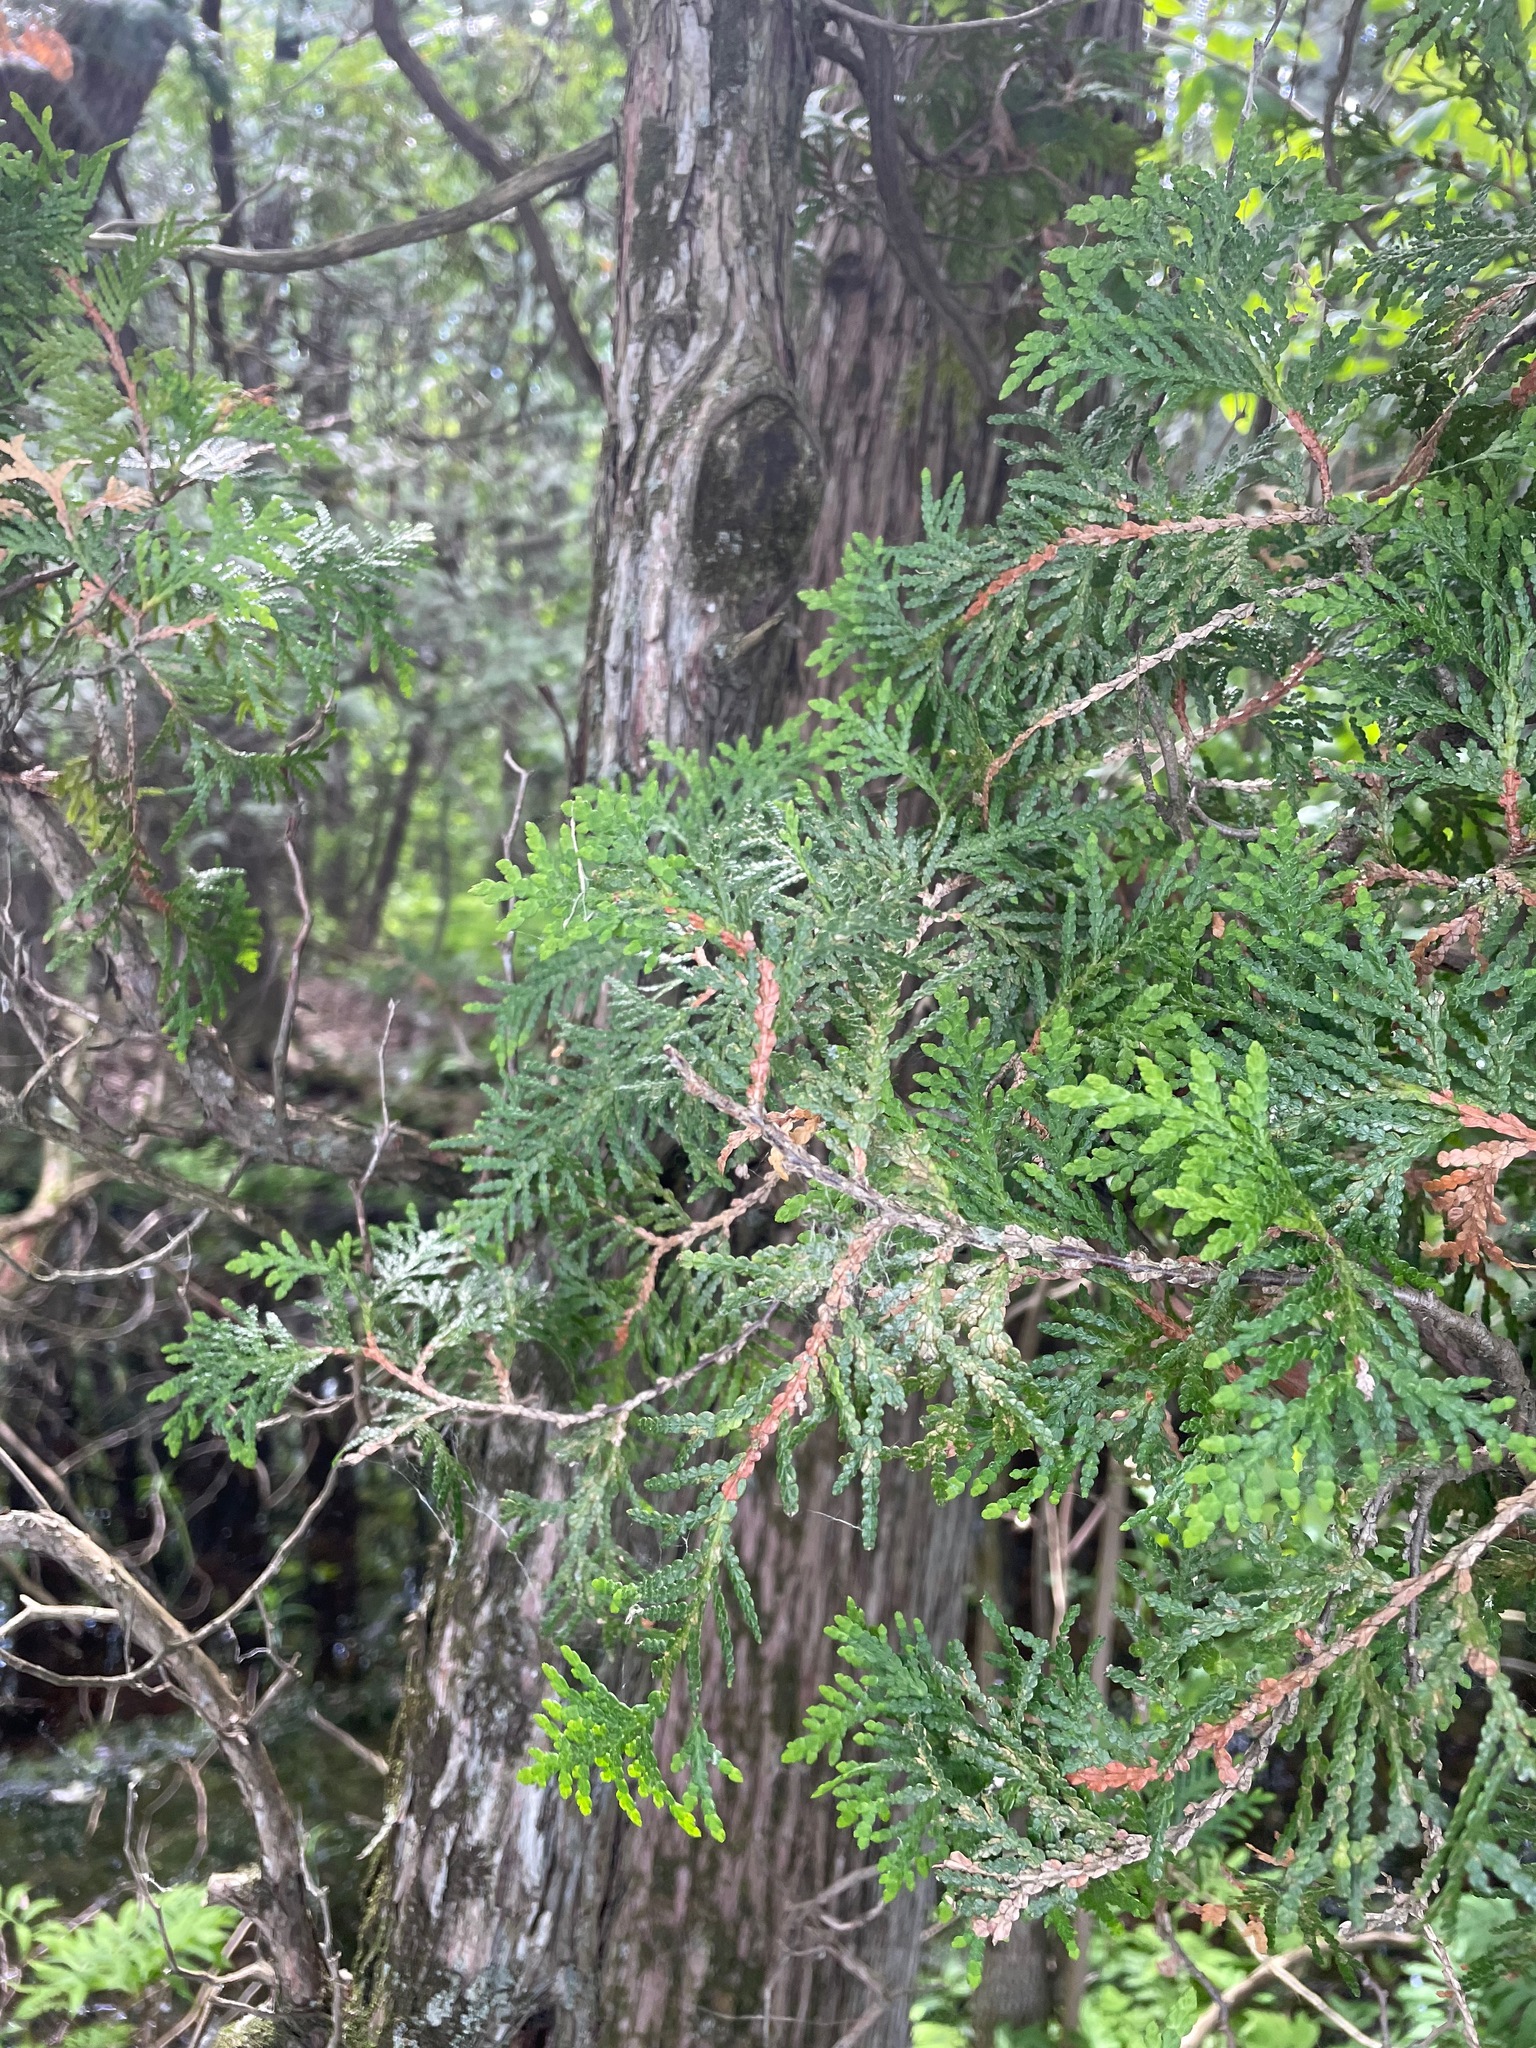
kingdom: Plantae
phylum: Tracheophyta
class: Pinopsida
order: Pinales
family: Cupressaceae
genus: Thuja
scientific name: Thuja occidentalis
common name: Northern white-cedar
